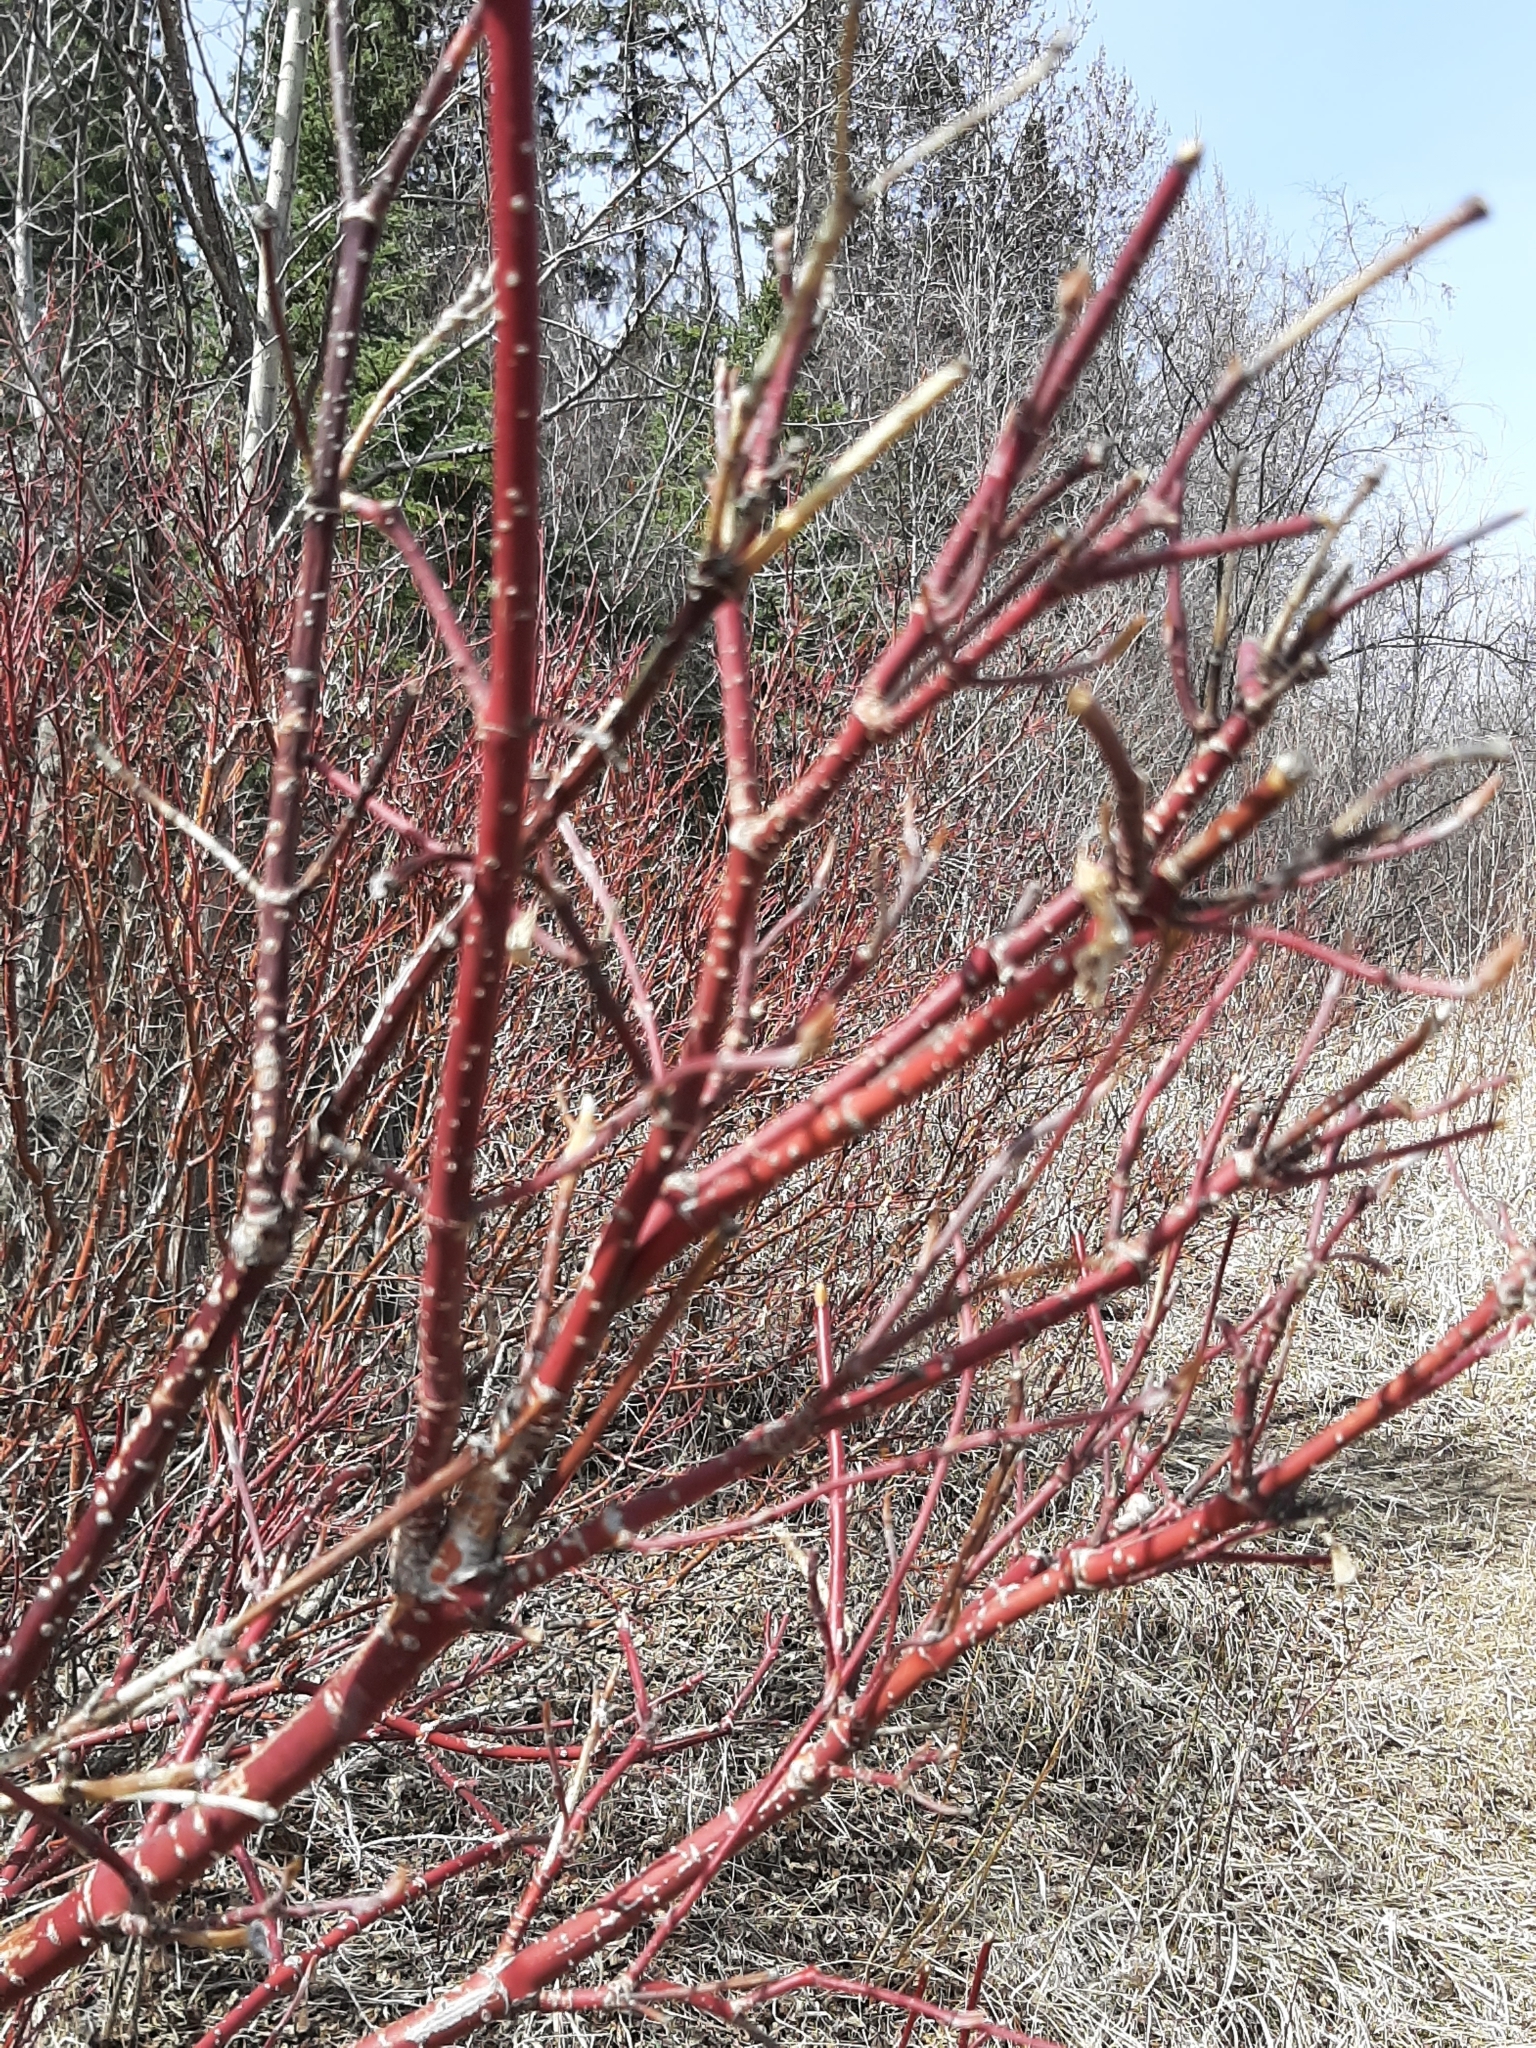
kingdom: Plantae
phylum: Tracheophyta
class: Magnoliopsida
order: Cornales
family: Cornaceae
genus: Cornus
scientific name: Cornus sericea
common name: Red-osier dogwood
